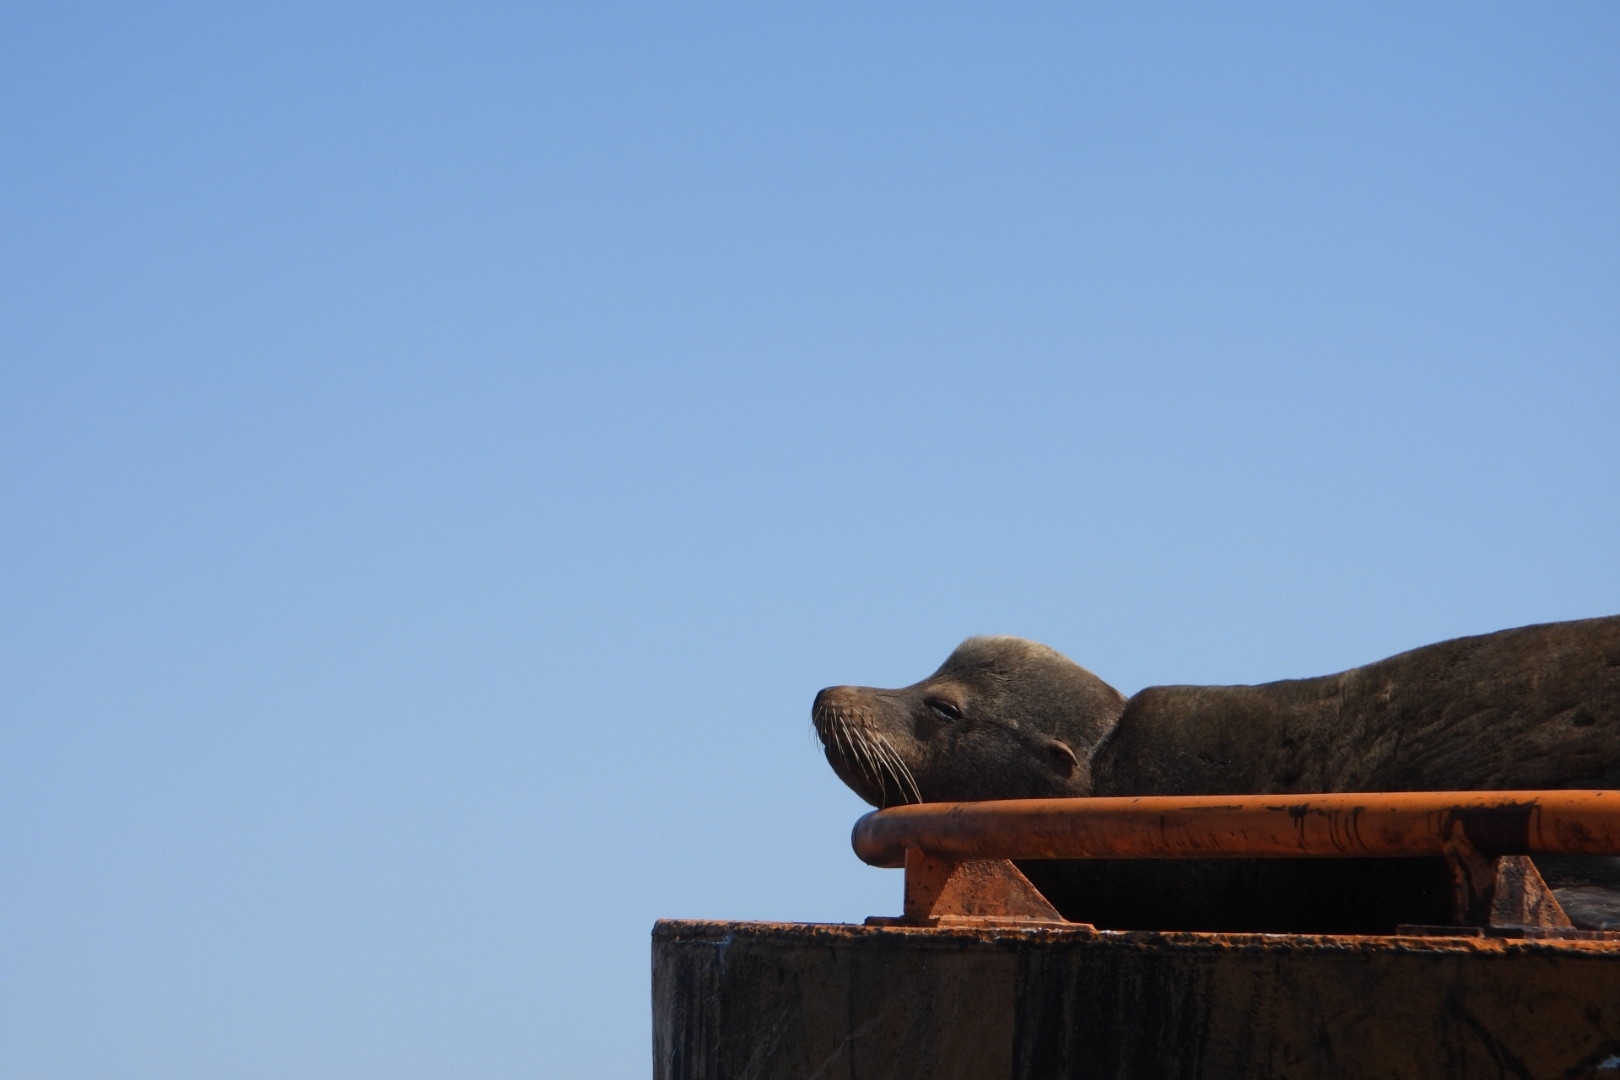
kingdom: Animalia
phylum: Chordata
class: Mammalia
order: Carnivora
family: Otariidae
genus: Zalophus
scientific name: Zalophus californianus
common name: California sea lion
